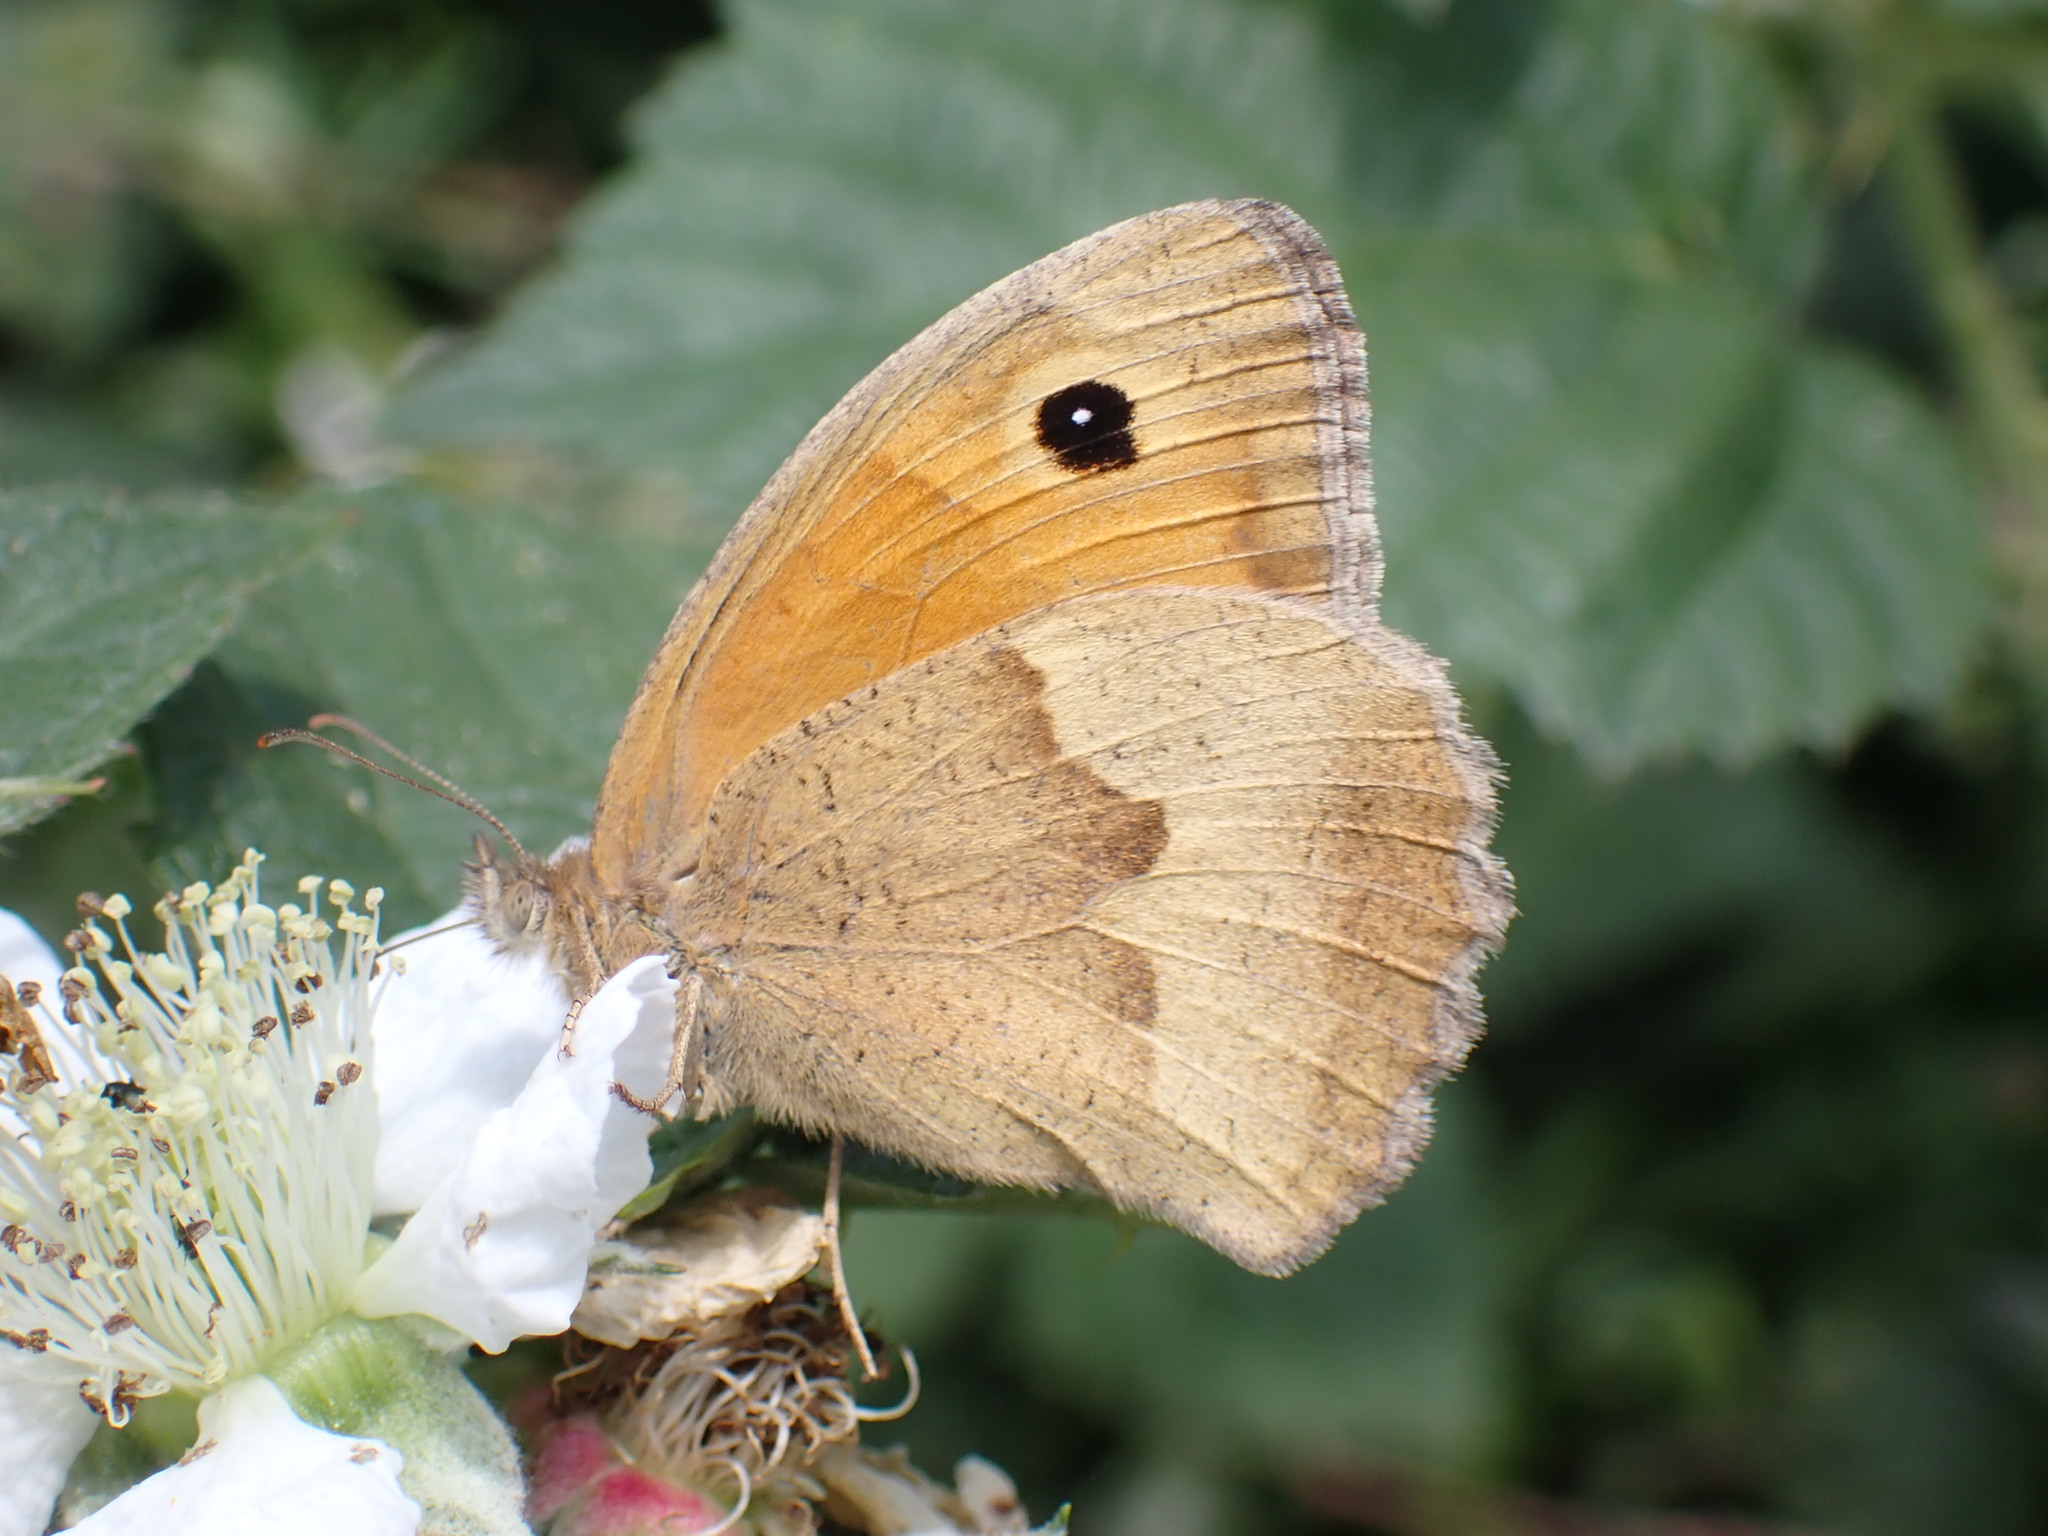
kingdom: Animalia
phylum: Arthropoda
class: Insecta
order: Lepidoptera
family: Nymphalidae
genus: Maniola
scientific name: Maniola jurtina
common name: Meadow brown
